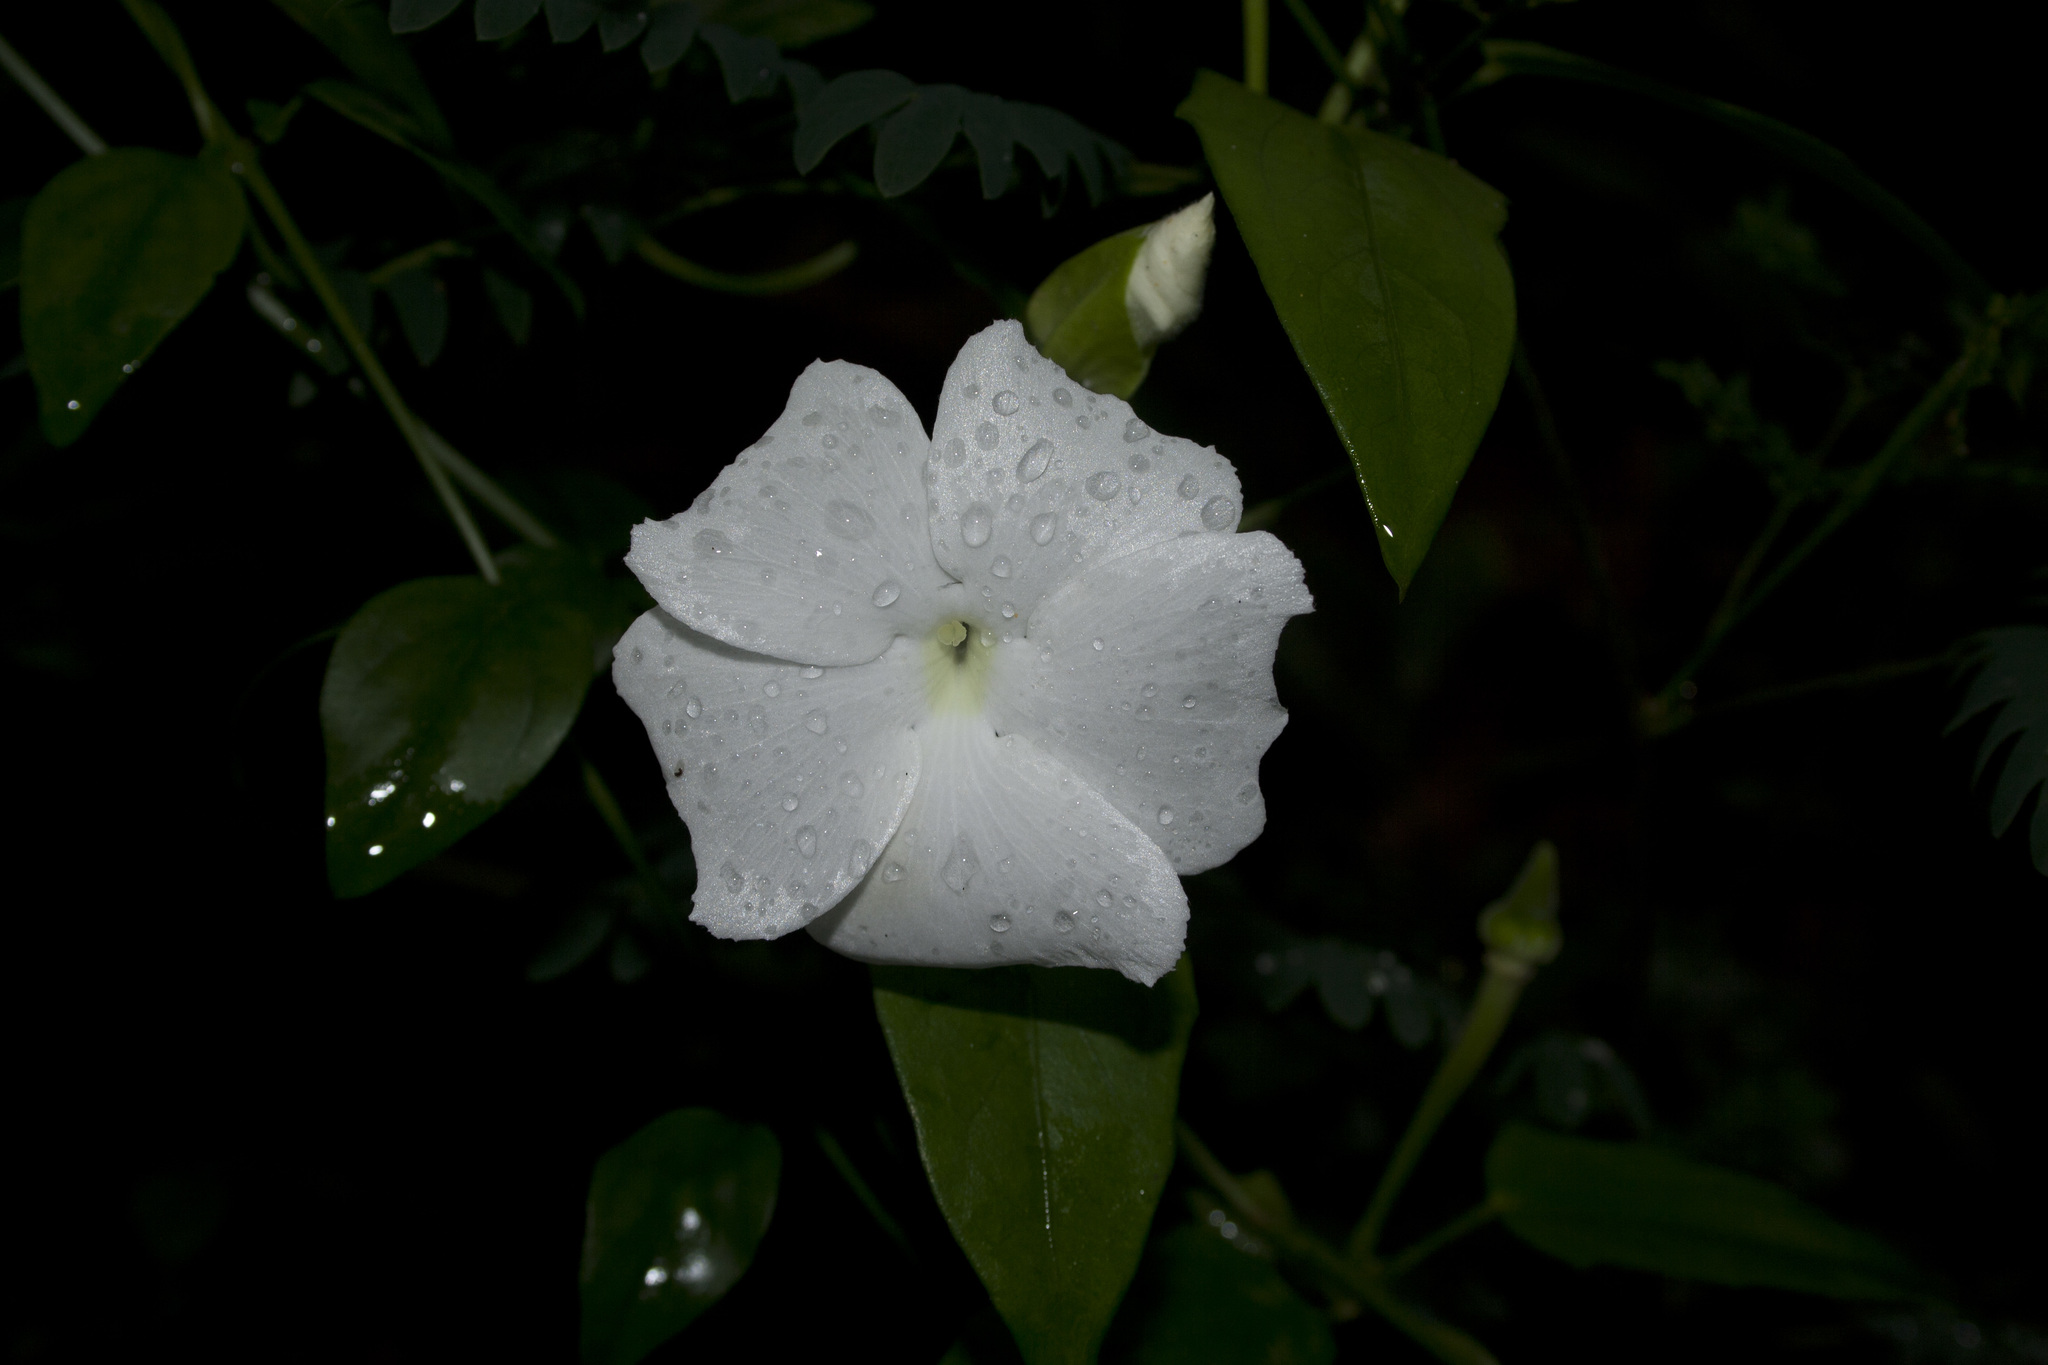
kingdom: Plantae
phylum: Tracheophyta
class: Magnoliopsida
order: Lamiales
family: Acanthaceae
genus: Thunbergia
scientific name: Thunbergia fragrans
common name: Whitelady
